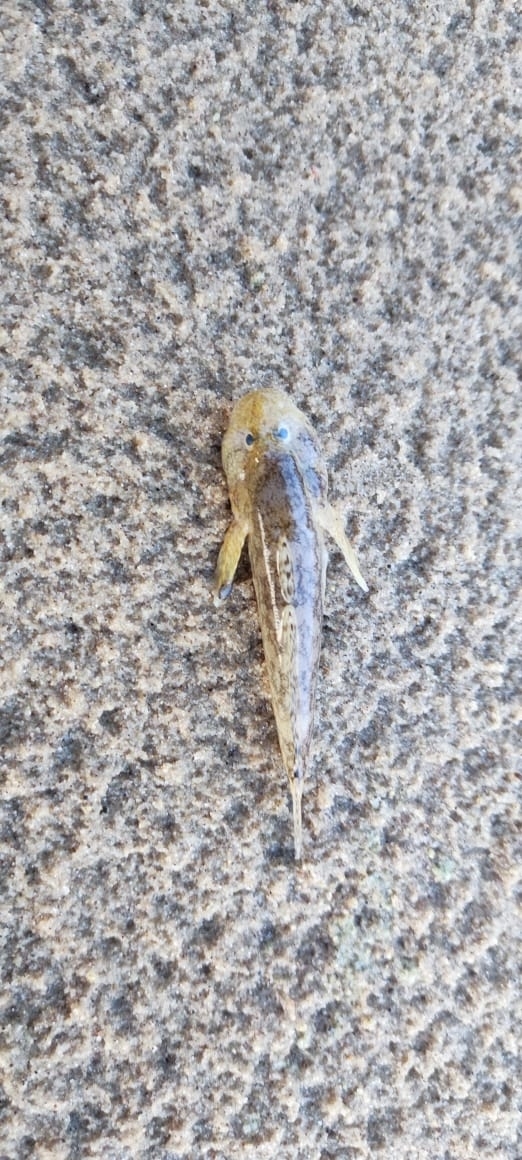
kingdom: Animalia
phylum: Chordata
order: Perciformes
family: Gobiidae
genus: Neogobius
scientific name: Neogobius melanostomus
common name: Round goby
